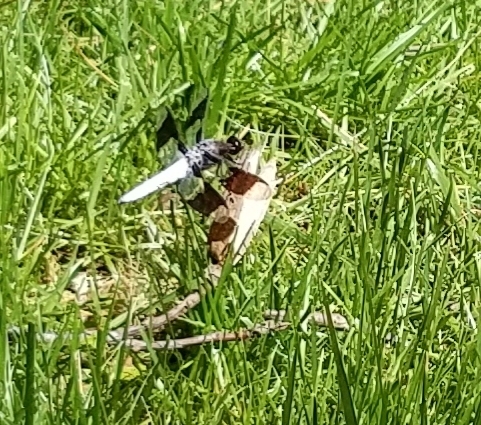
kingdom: Animalia
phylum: Arthropoda
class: Insecta
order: Odonata
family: Libellulidae
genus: Plathemis
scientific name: Plathemis lydia
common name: Common whitetail
